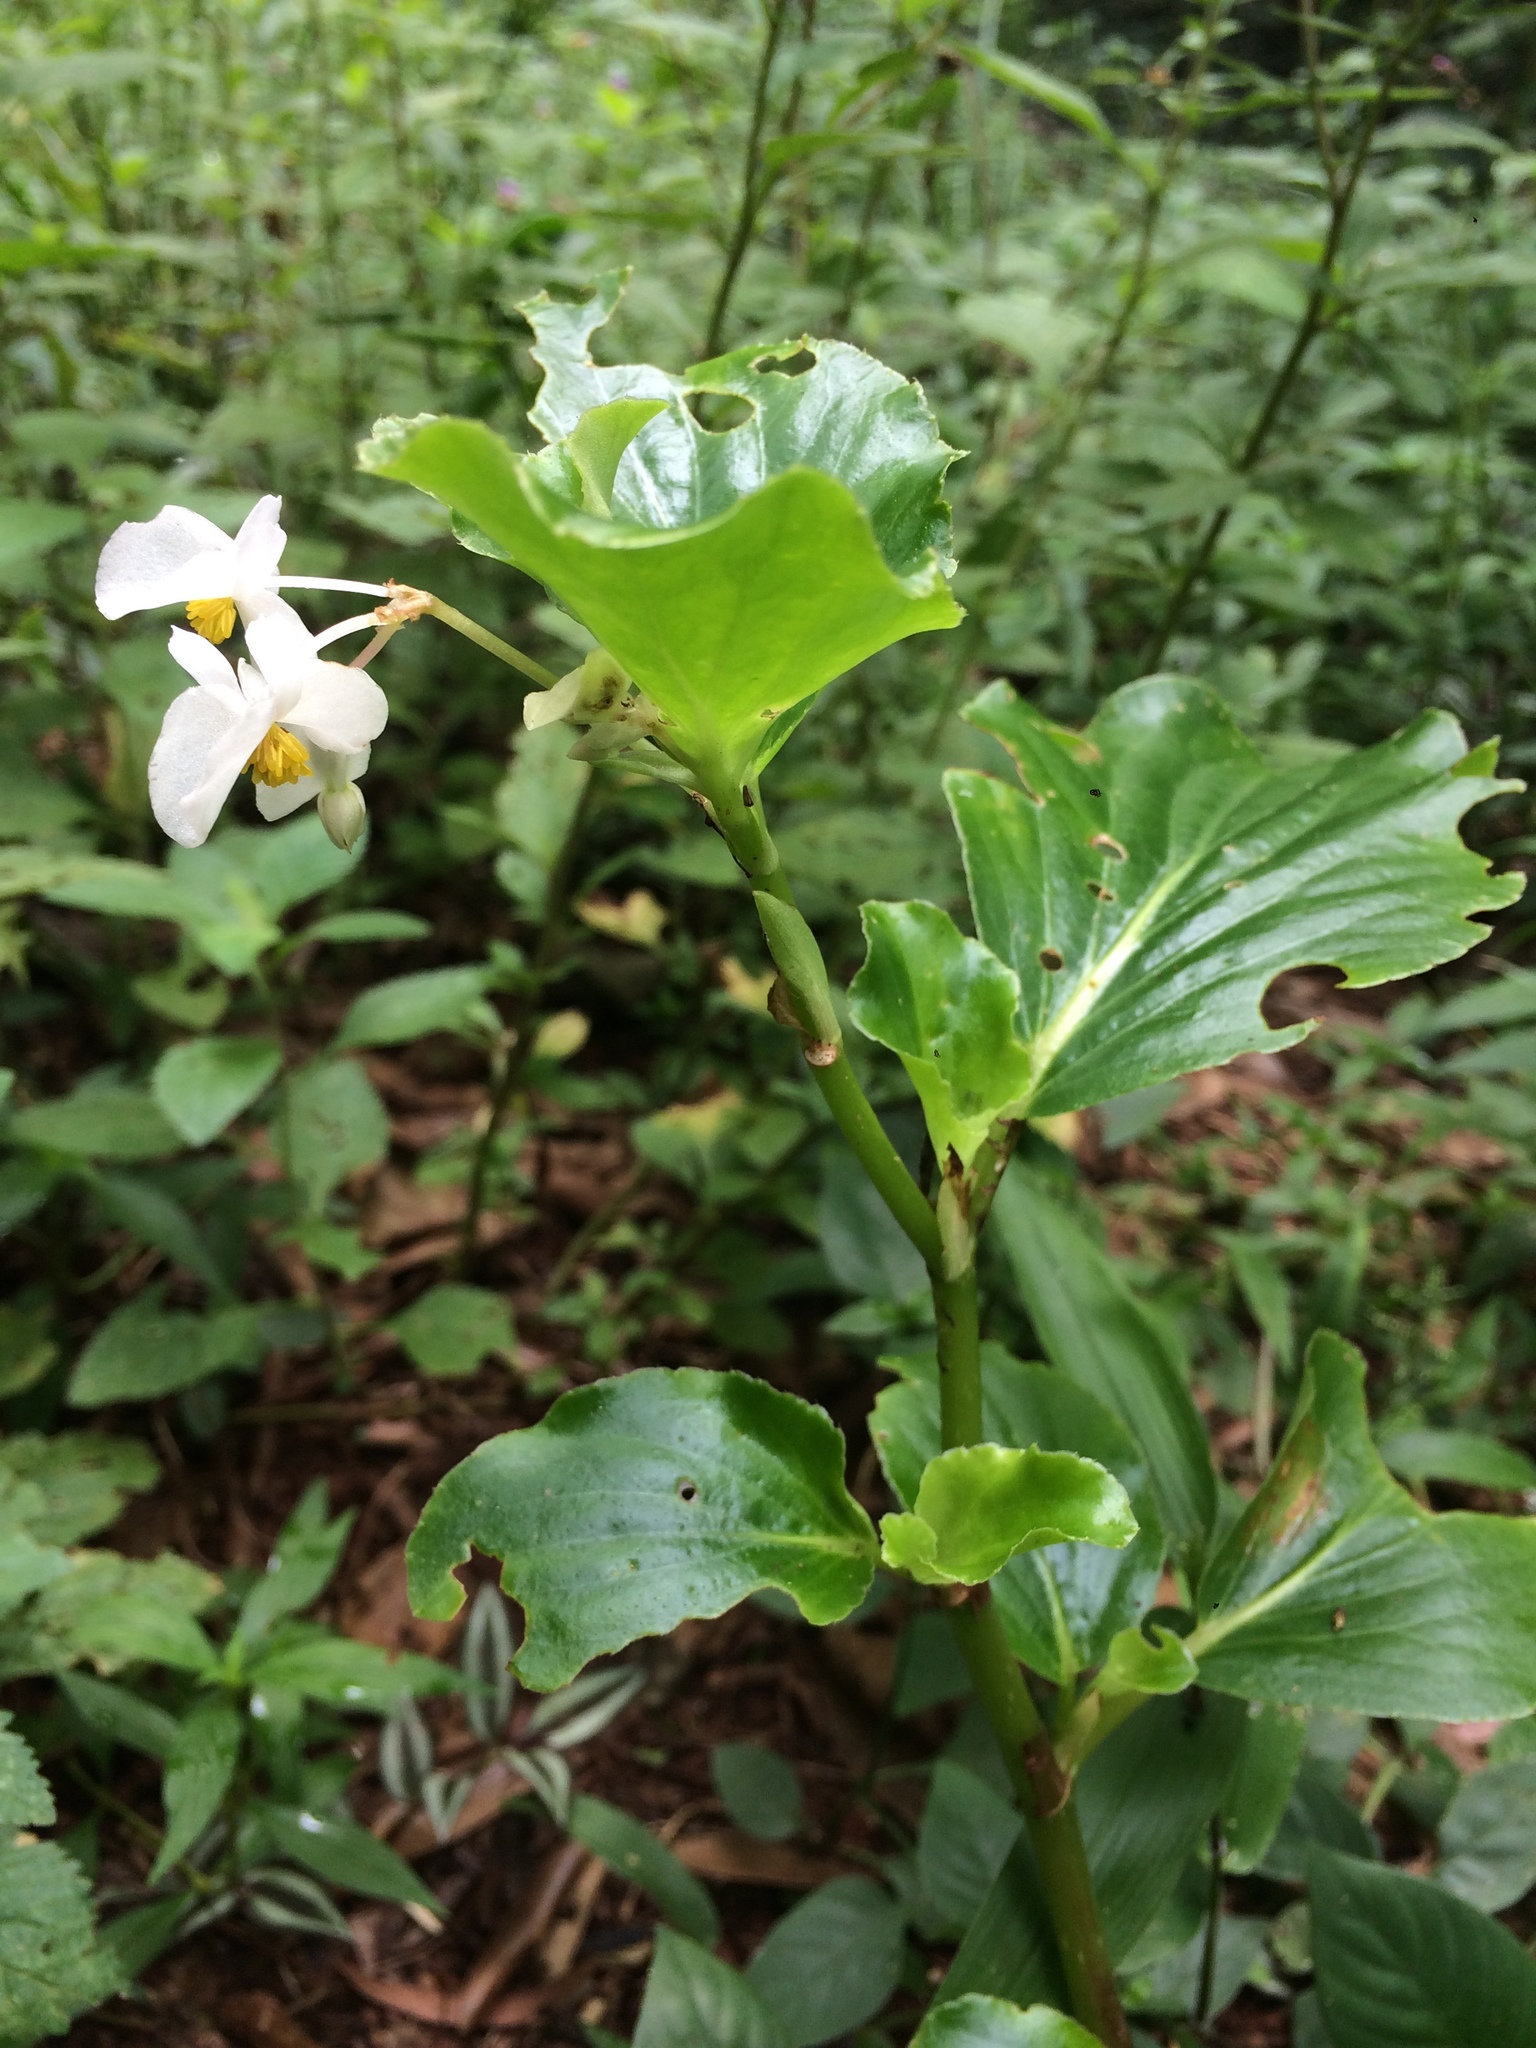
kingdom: Plantae
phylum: Tracheophyta
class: Magnoliopsida
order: Cucurbitales
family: Begoniaceae
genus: Begonia
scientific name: Begonia cucullata
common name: Clubbed begonia
